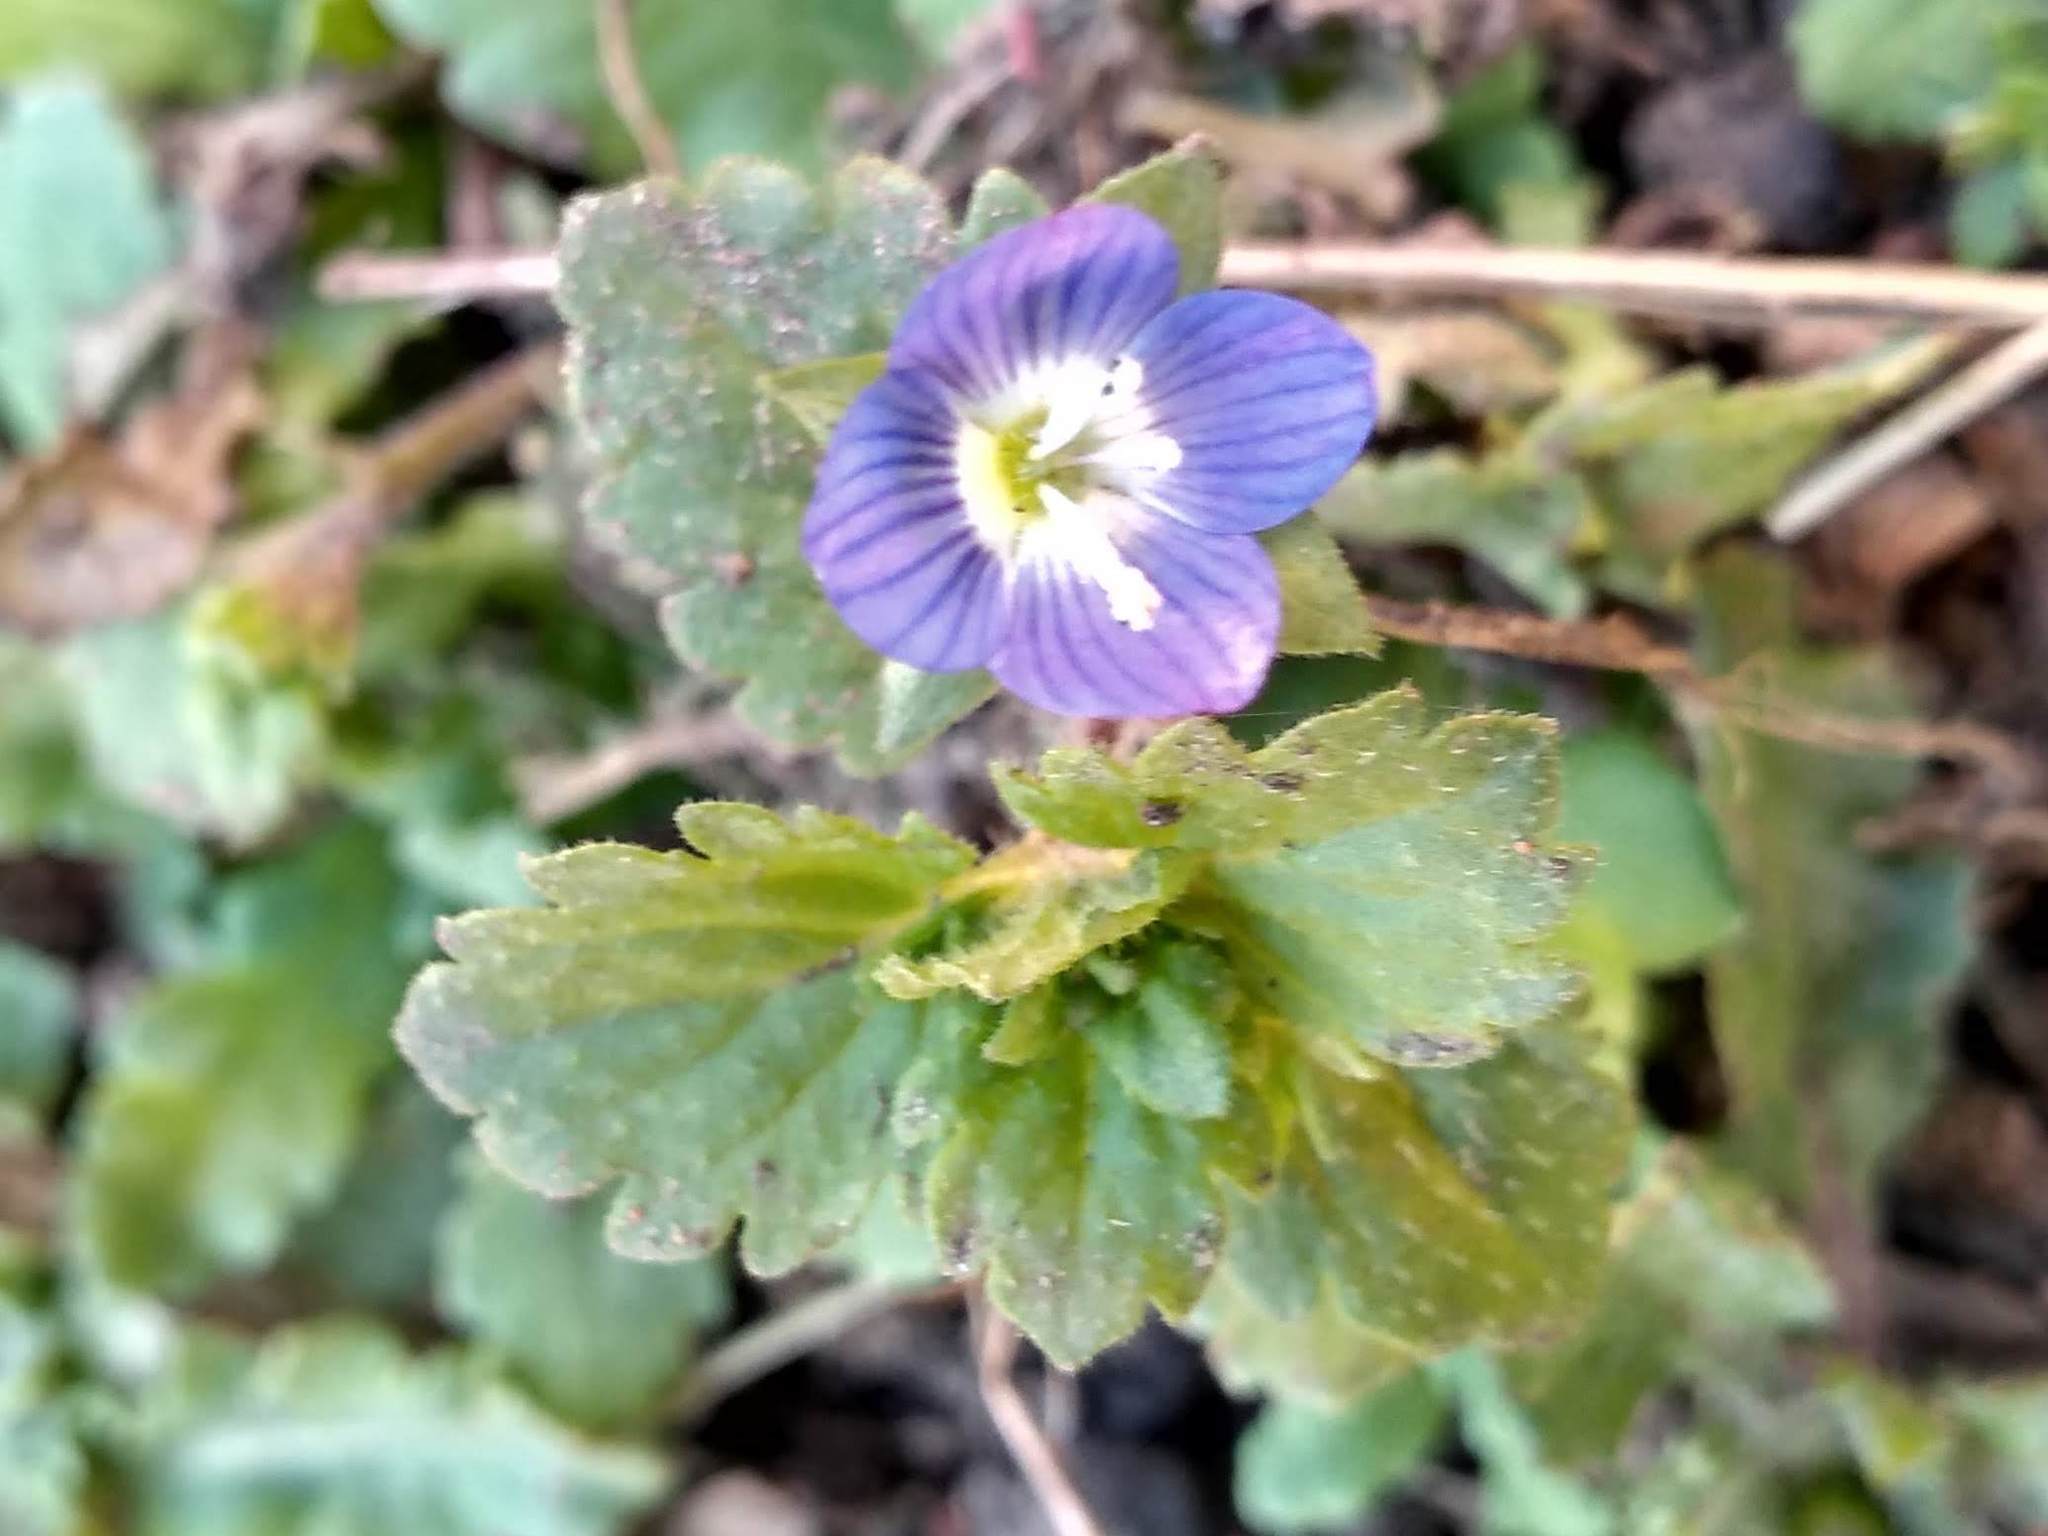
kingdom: Plantae
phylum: Tracheophyta
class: Magnoliopsida
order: Lamiales
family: Plantaginaceae
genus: Veronica
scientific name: Veronica persica
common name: Common field-speedwell
